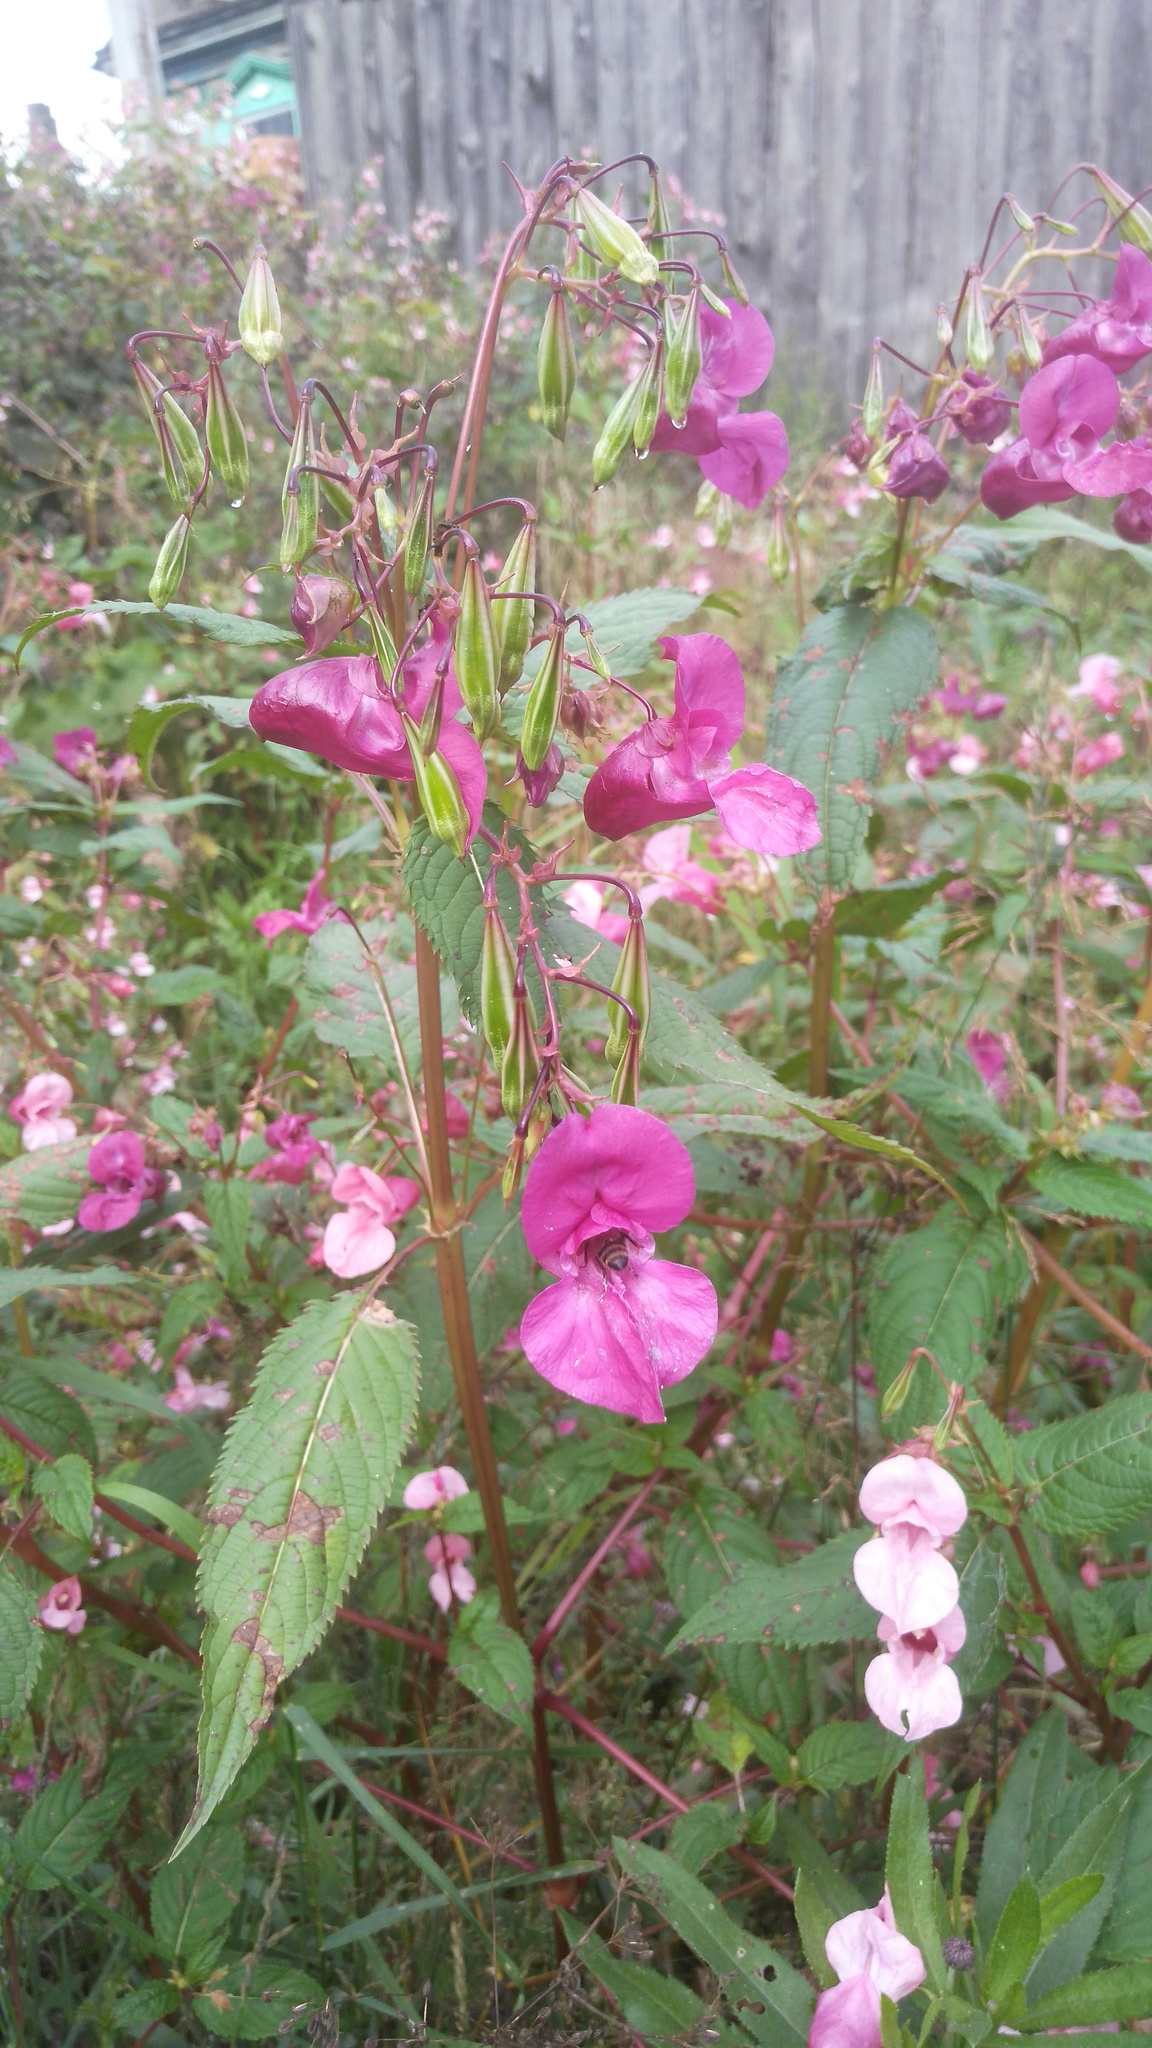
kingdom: Plantae
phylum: Tracheophyta
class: Magnoliopsida
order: Ericales
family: Balsaminaceae
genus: Impatiens
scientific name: Impatiens glandulifera
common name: Himalayan balsam
